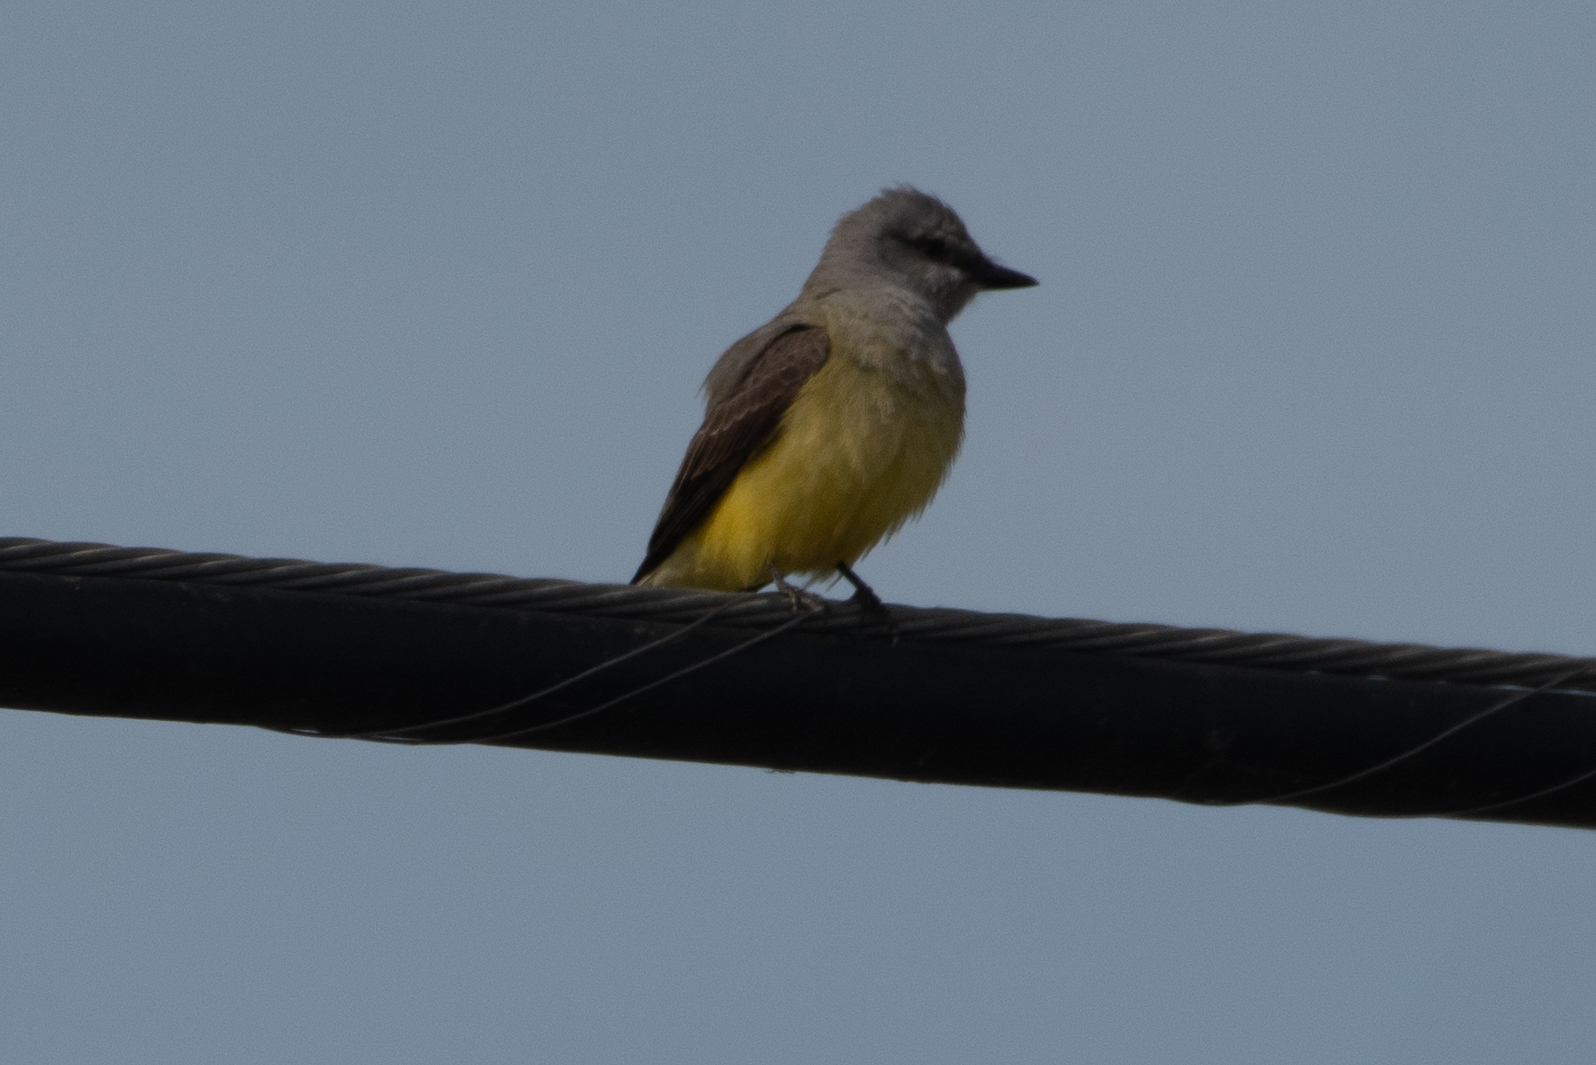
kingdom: Animalia
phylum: Chordata
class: Aves
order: Passeriformes
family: Tyrannidae
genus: Tyrannus
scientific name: Tyrannus verticalis
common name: Western kingbird
